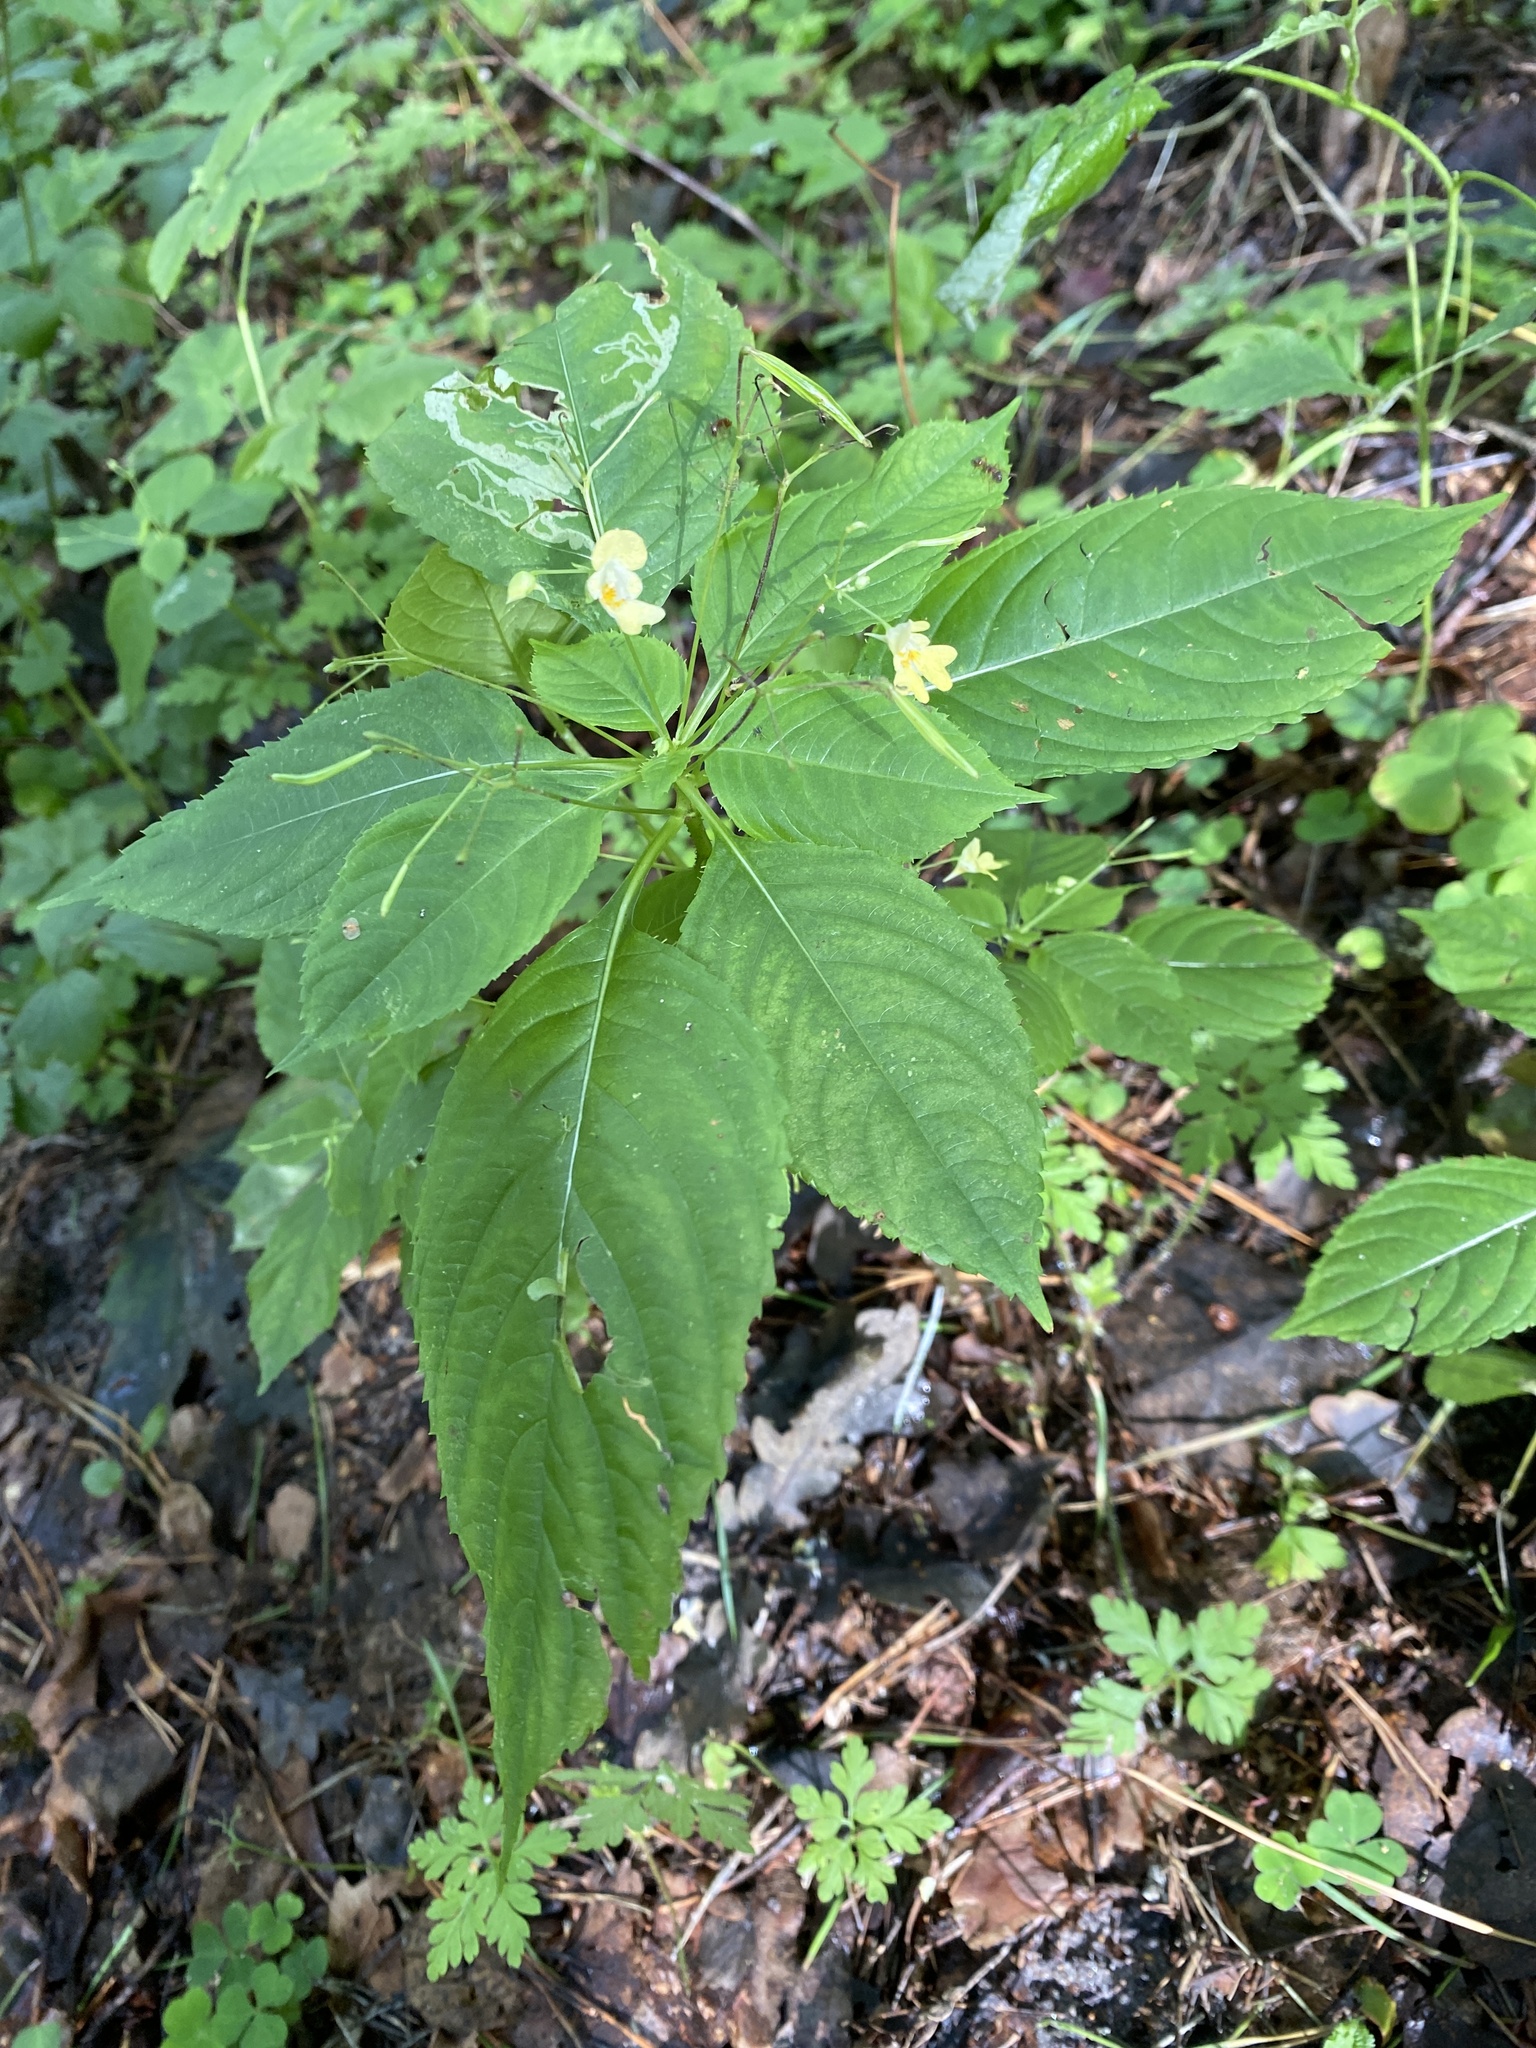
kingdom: Plantae
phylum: Tracheophyta
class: Magnoliopsida
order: Ericales
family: Balsaminaceae
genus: Impatiens
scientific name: Impatiens parviflora
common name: Small balsam
